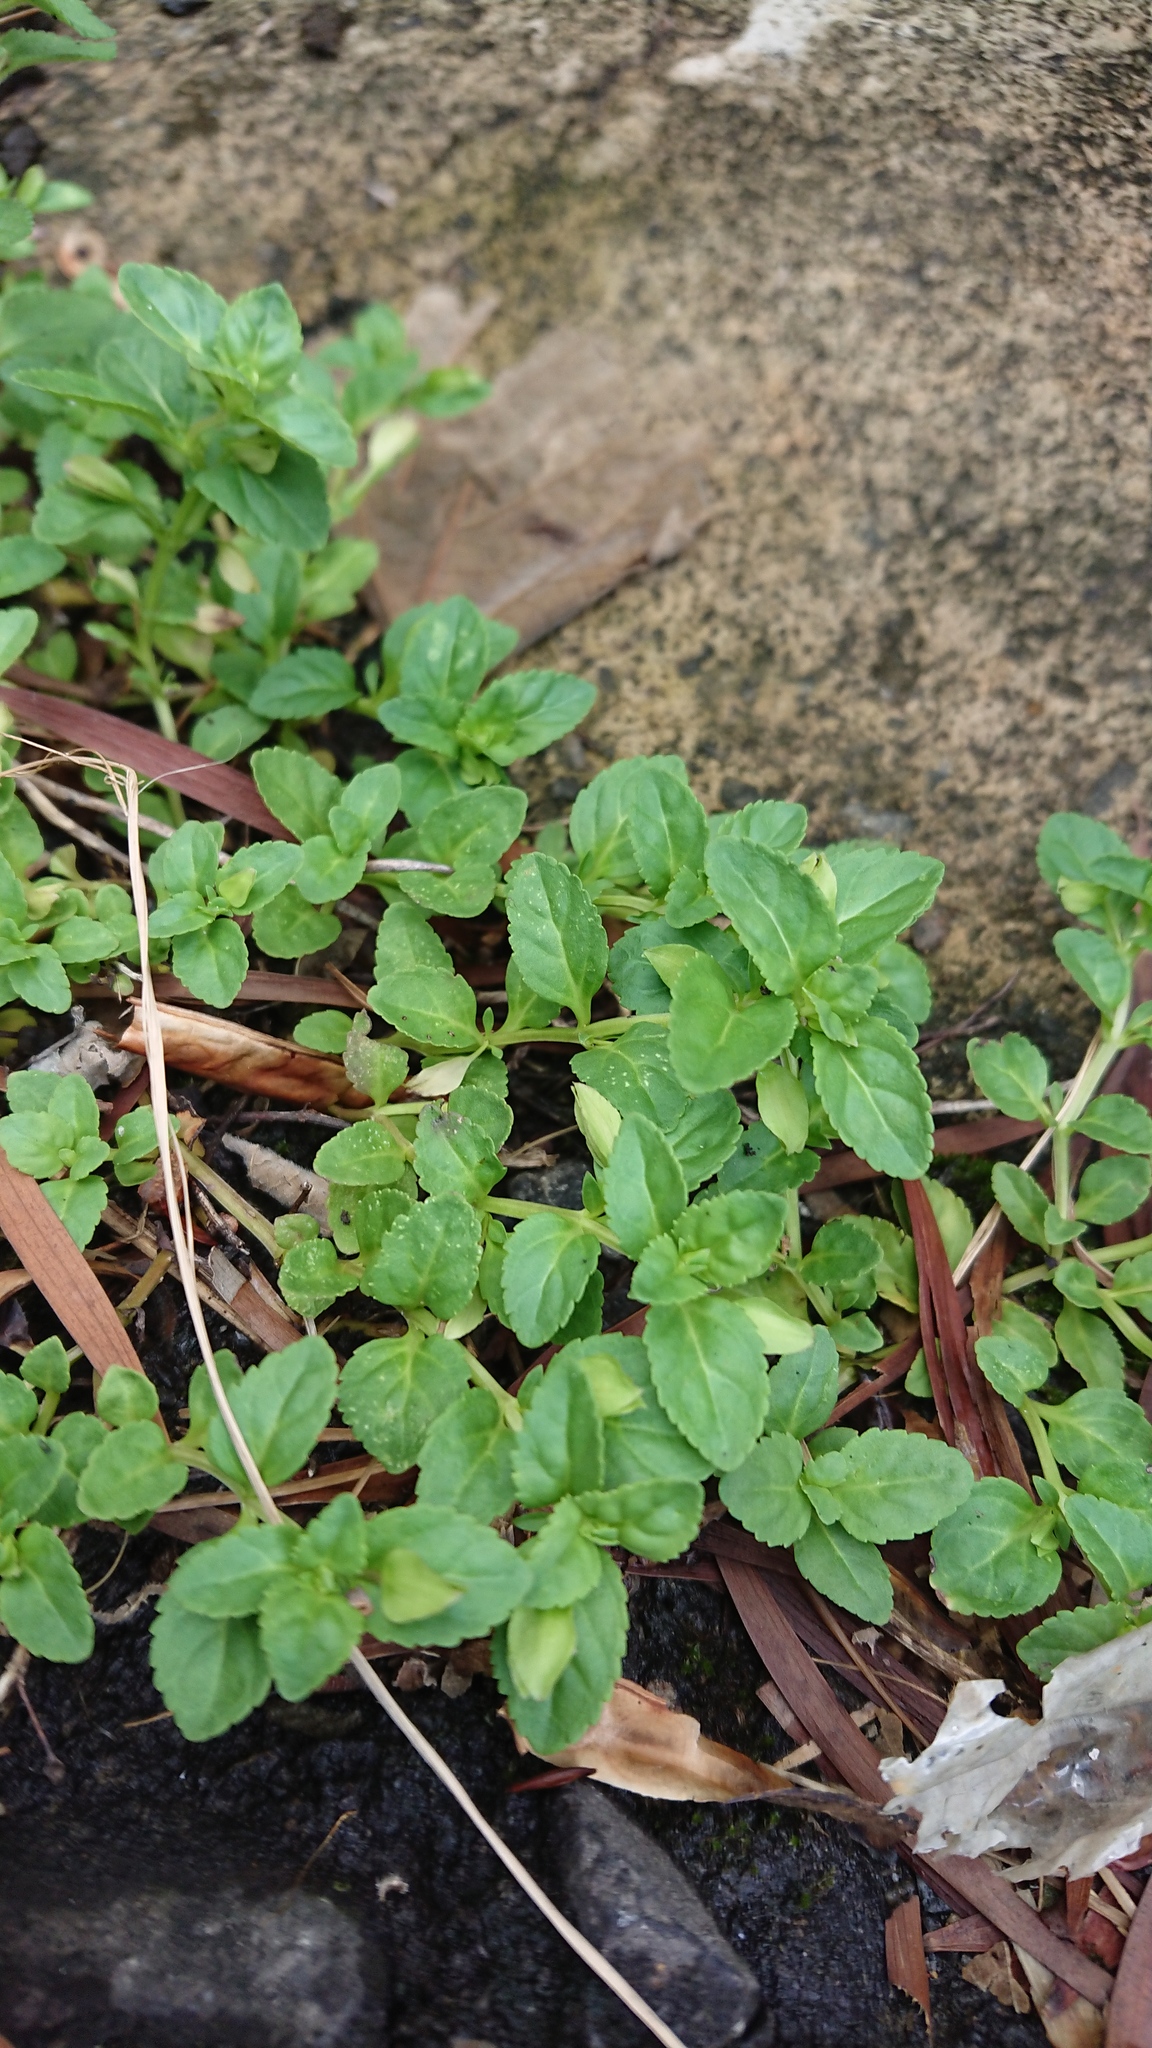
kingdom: Plantae
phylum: Tracheophyta
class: Magnoliopsida
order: Lamiales
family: Plantaginaceae
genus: Stemodia
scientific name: Stemodia verticillata
